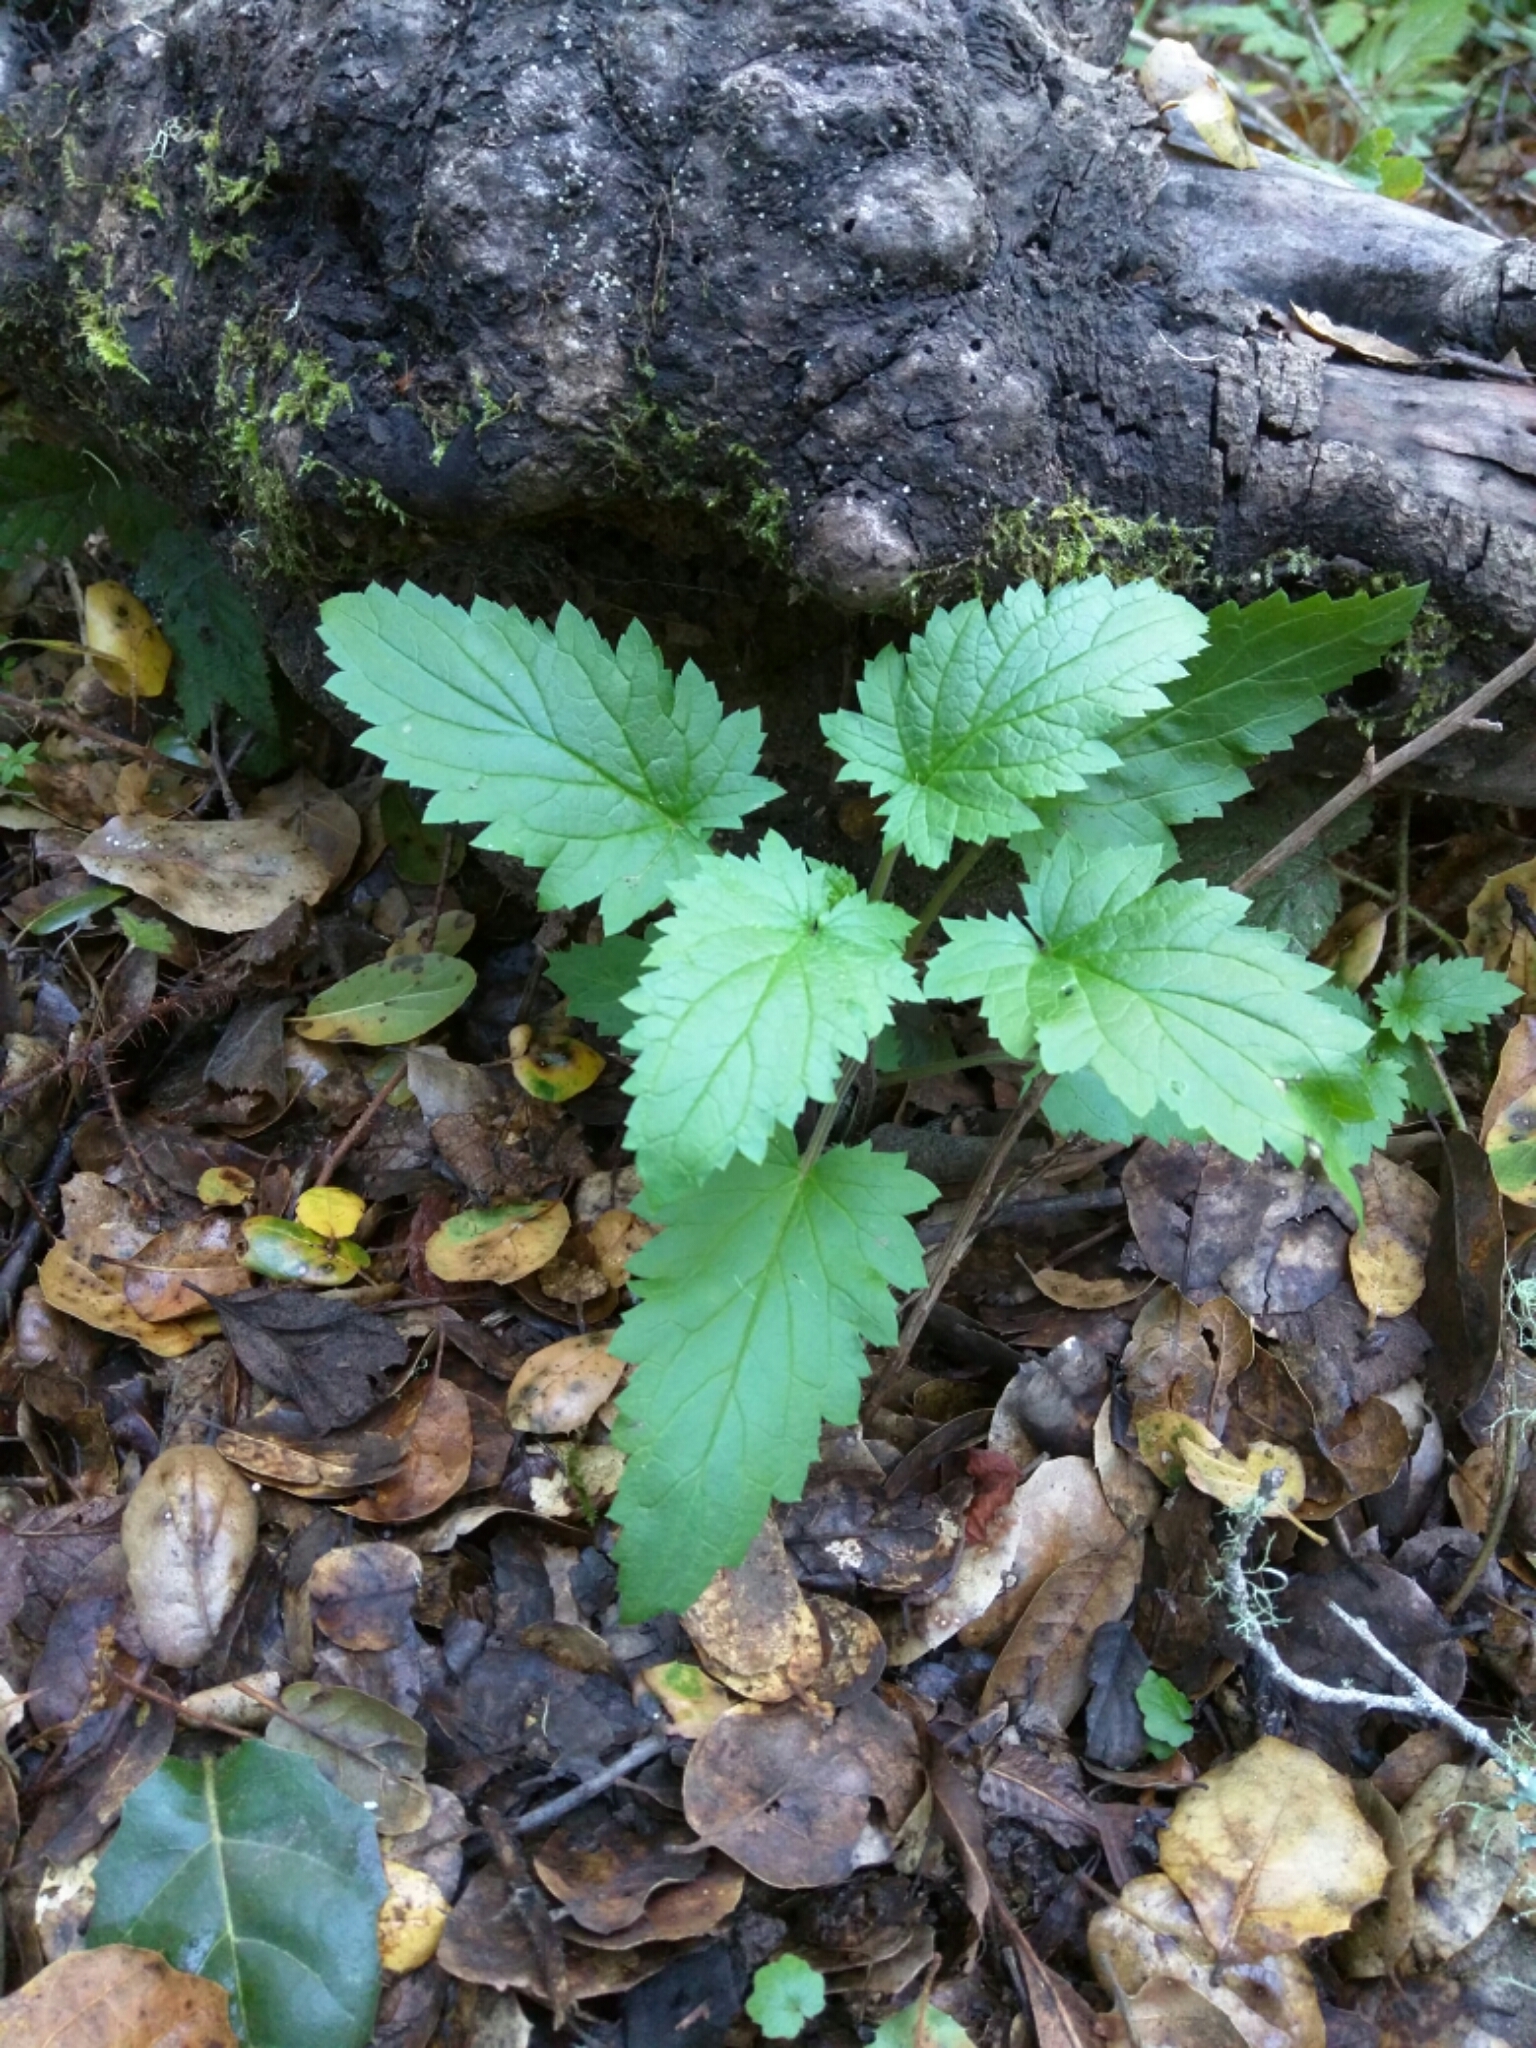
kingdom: Plantae
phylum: Tracheophyta
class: Magnoliopsida
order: Lamiales
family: Scrophulariaceae
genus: Scrophularia
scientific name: Scrophularia californica
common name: California figwort
